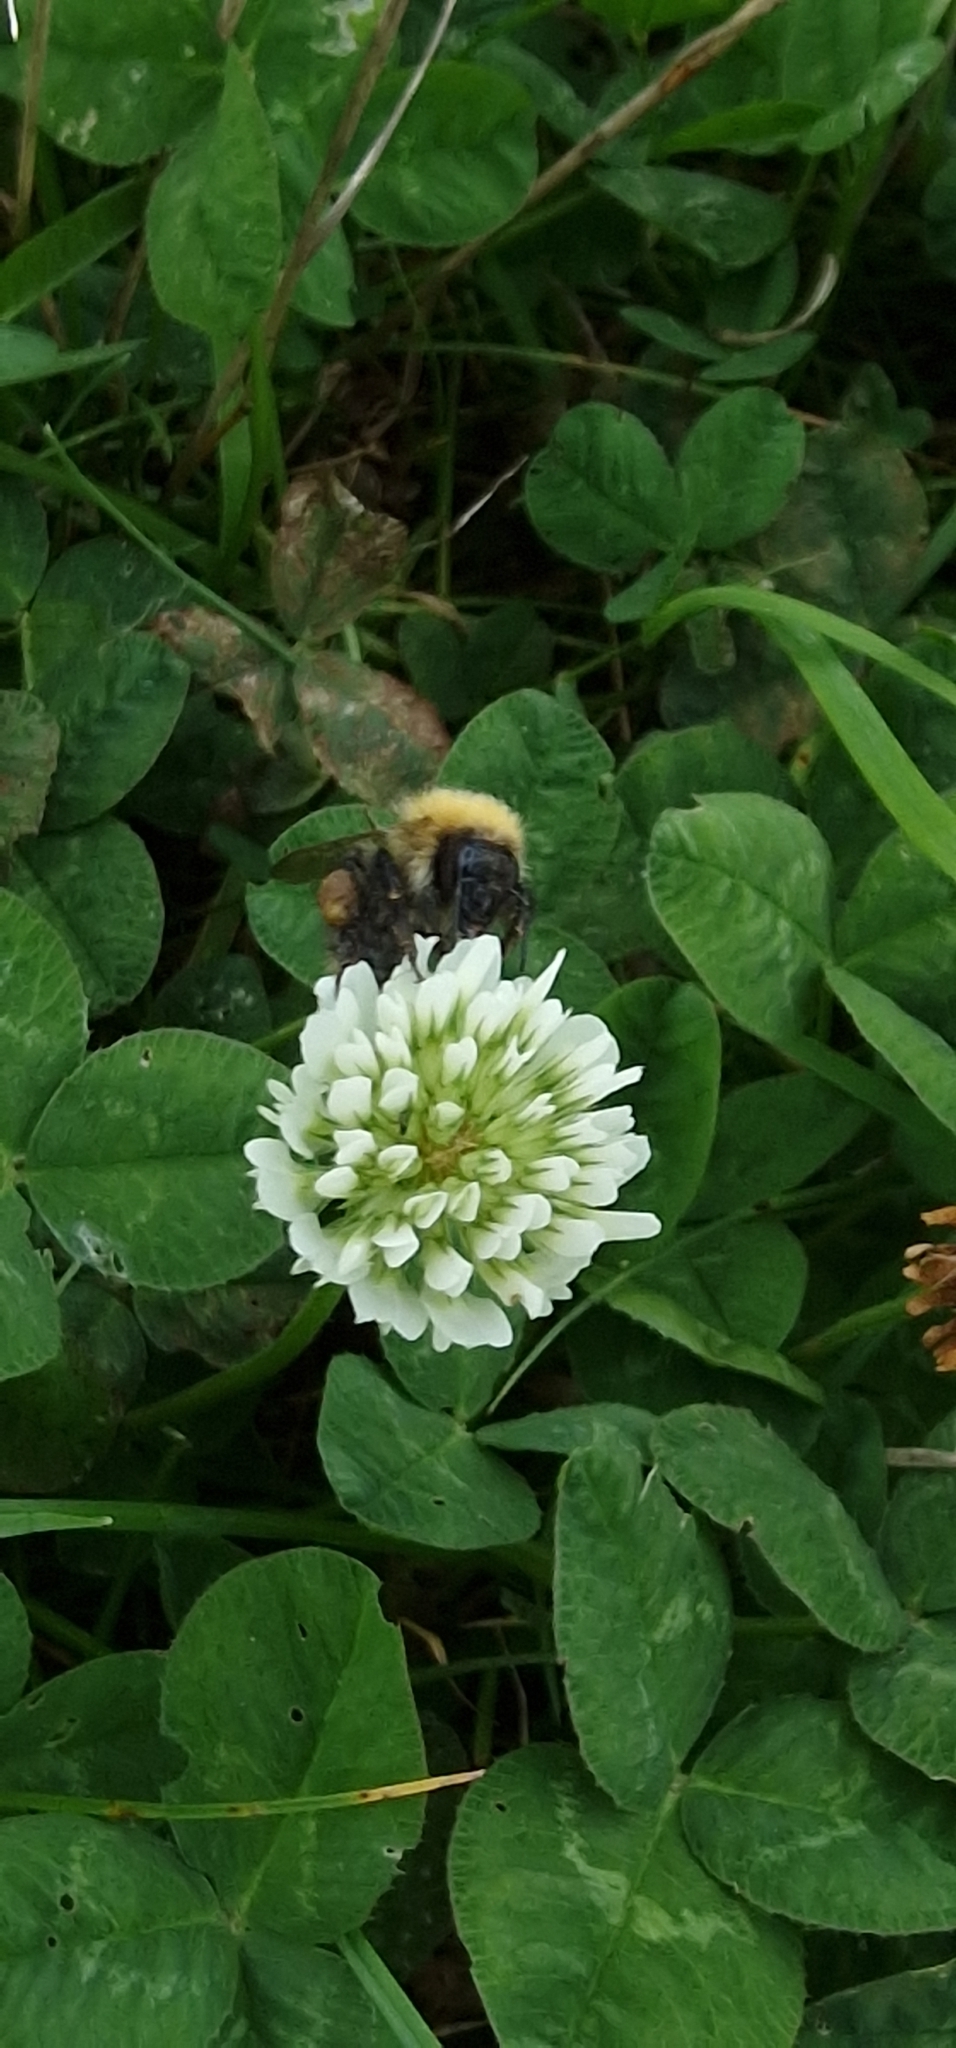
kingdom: Plantae
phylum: Tracheophyta
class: Magnoliopsida
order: Fabales
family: Fabaceae
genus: Trifolium
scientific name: Trifolium repens
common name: White clover
